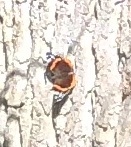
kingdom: Animalia
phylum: Arthropoda
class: Insecta
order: Lepidoptera
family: Nymphalidae
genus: Vanessa
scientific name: Vanessa atalanta
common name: Red admiral
